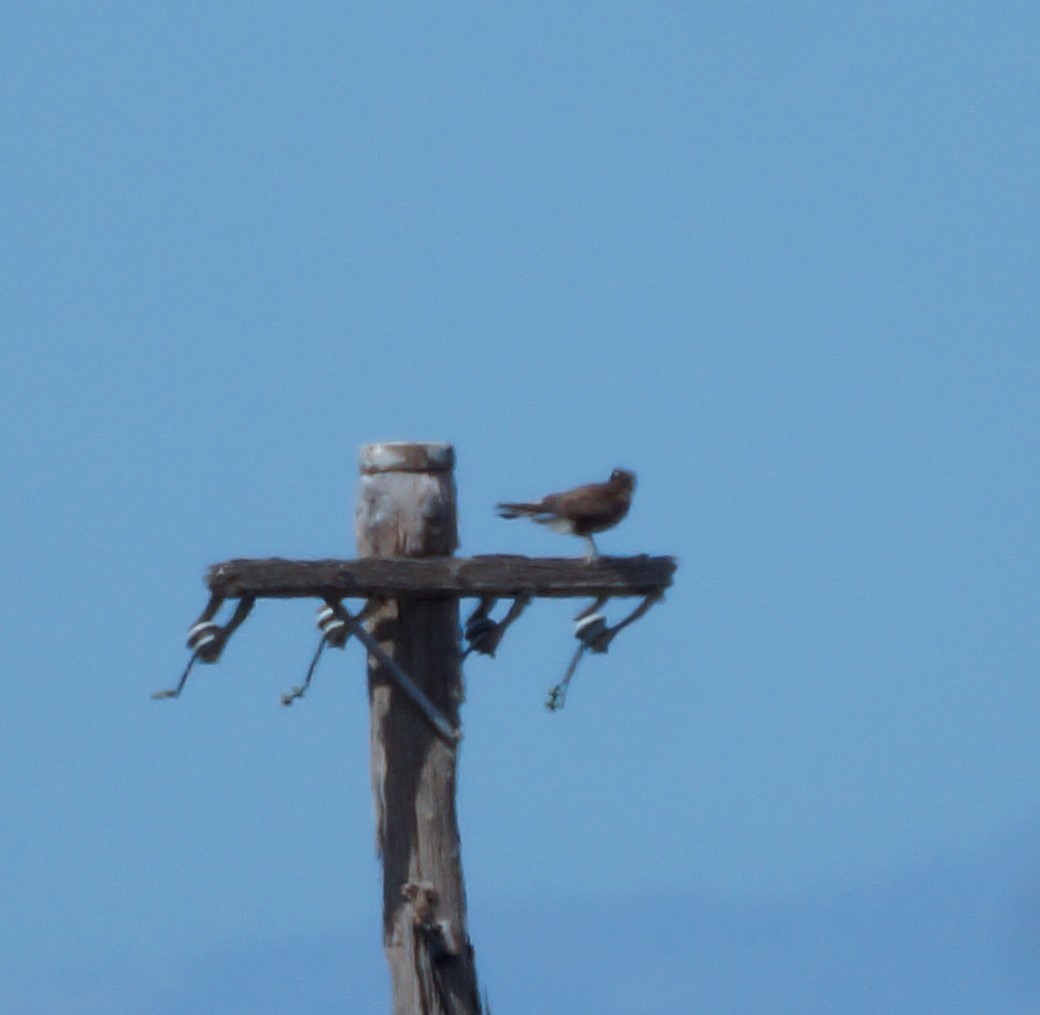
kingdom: Animalia
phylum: Chordata
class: Aves
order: Falconiformes
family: Falconidae
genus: Falco
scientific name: Falco berigora
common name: Brown falcon
